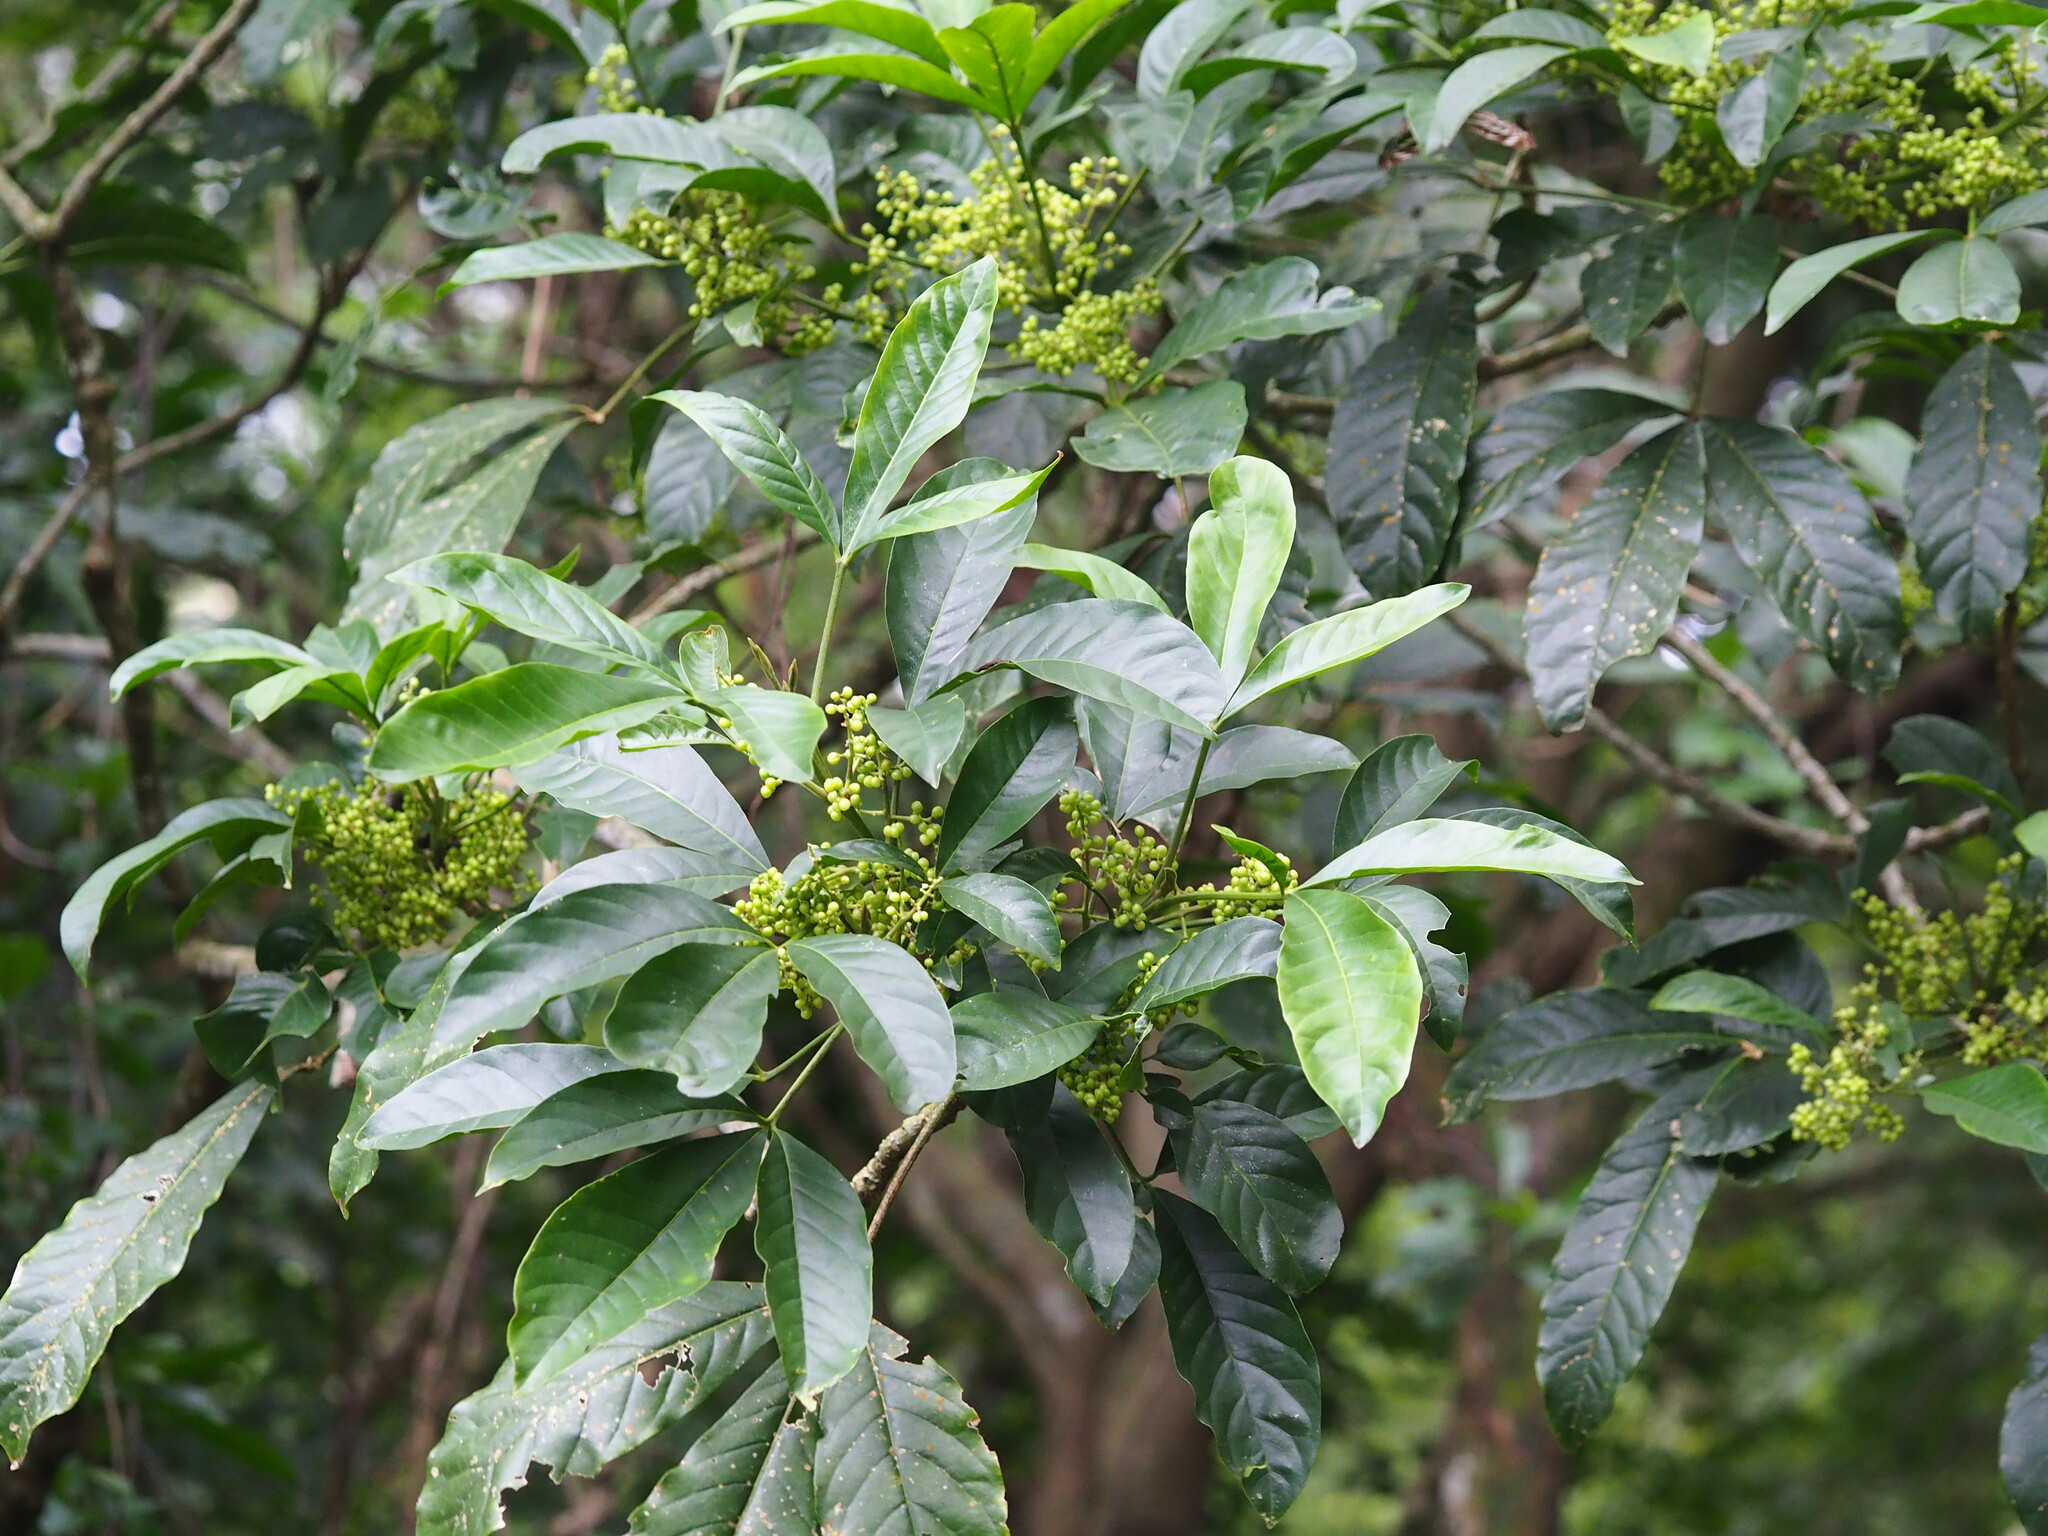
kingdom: Plantae
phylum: Tracheophyta
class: Magnoliopsida
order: Sapindales
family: Rutaceae
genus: Melicope
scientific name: Melicope pteleifolia
